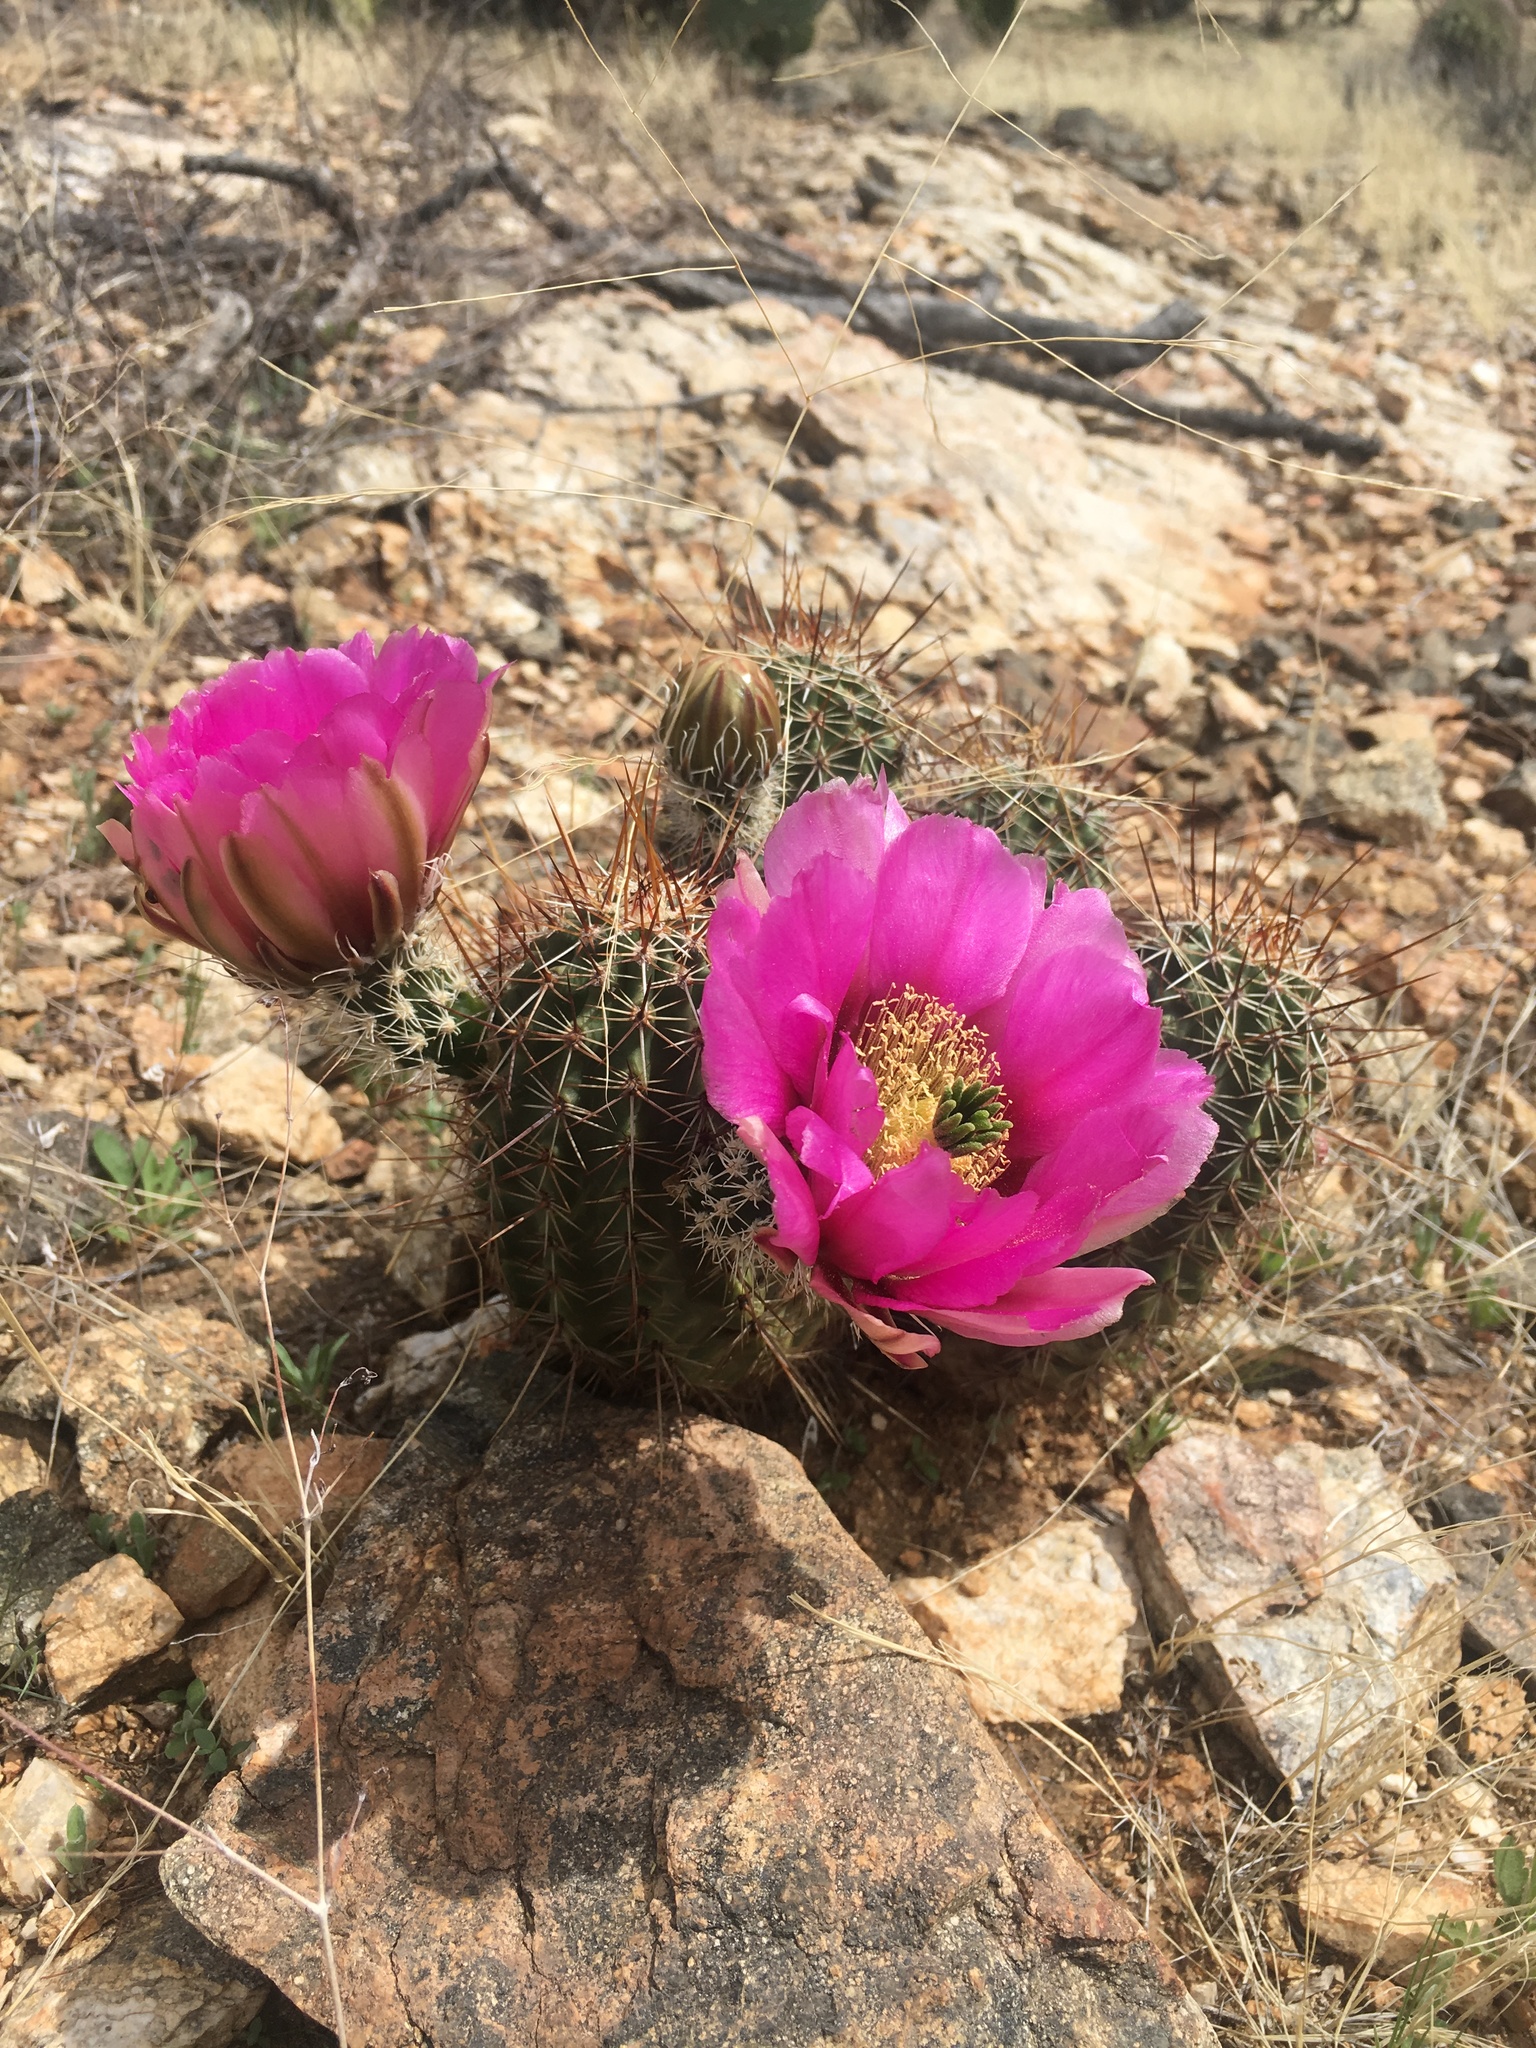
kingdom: Plantae
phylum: Tracheophyta
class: Magnoliopsida
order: Caryophyllales
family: Cactaceae
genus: Echinocereus
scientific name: Echinocereus fasciculatus
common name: Bundle hedgehog
